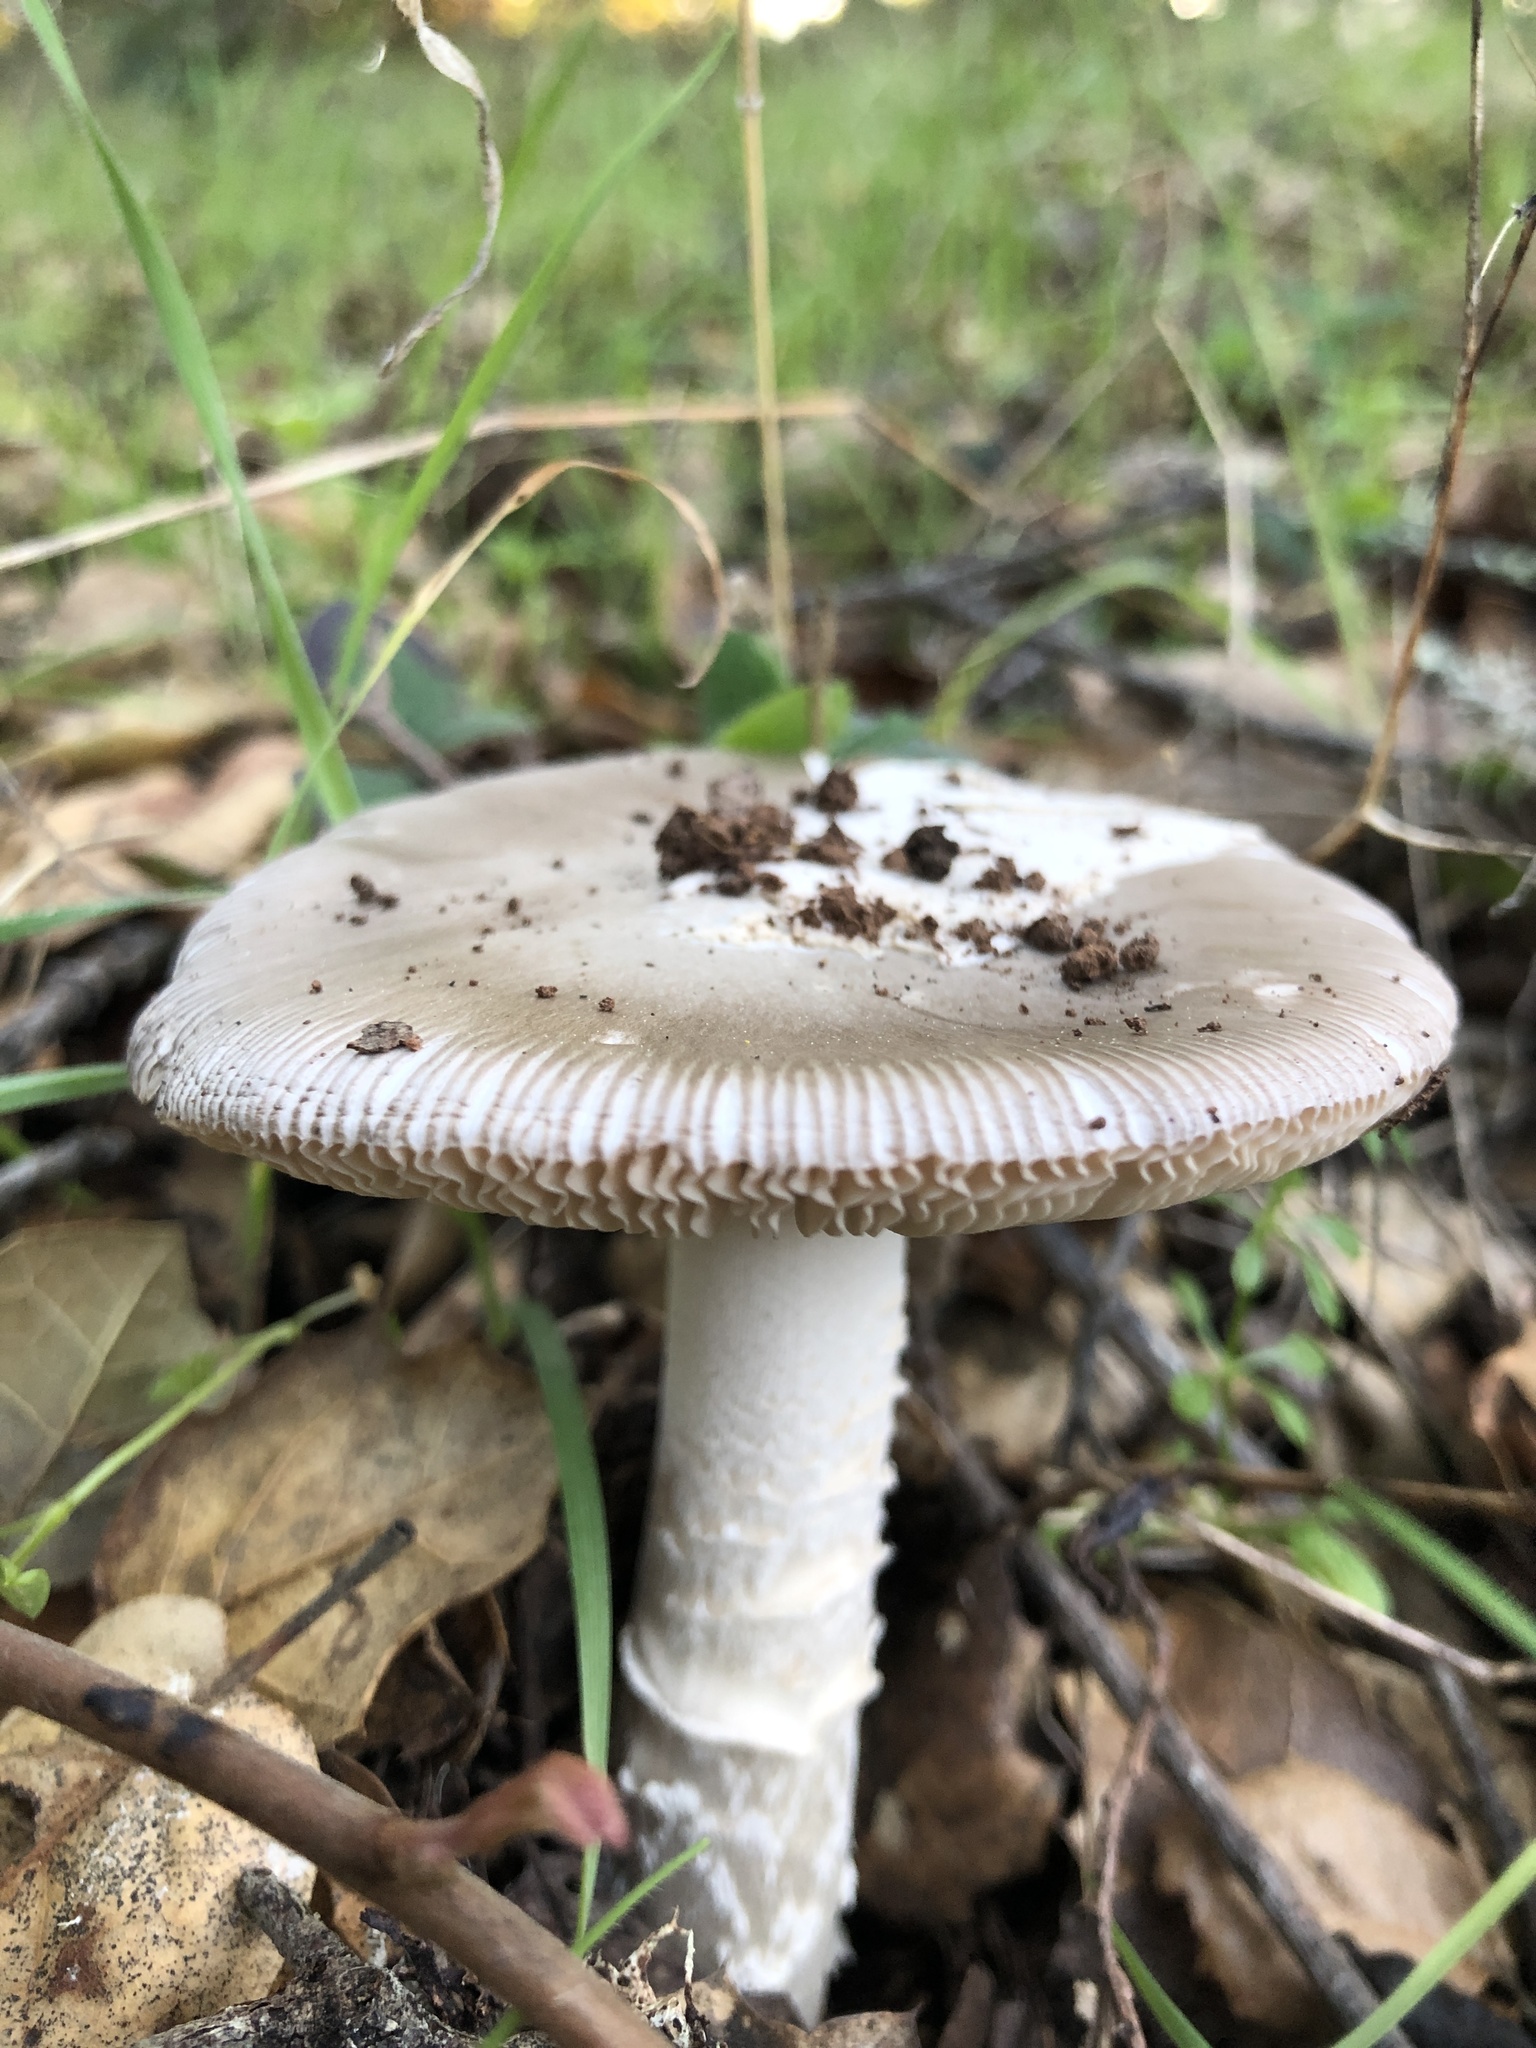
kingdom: Fungi
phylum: Basidiomycota
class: Agaricomycetes
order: Agaricales
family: Amanitaceae
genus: Amanita
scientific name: Amanita constricta
